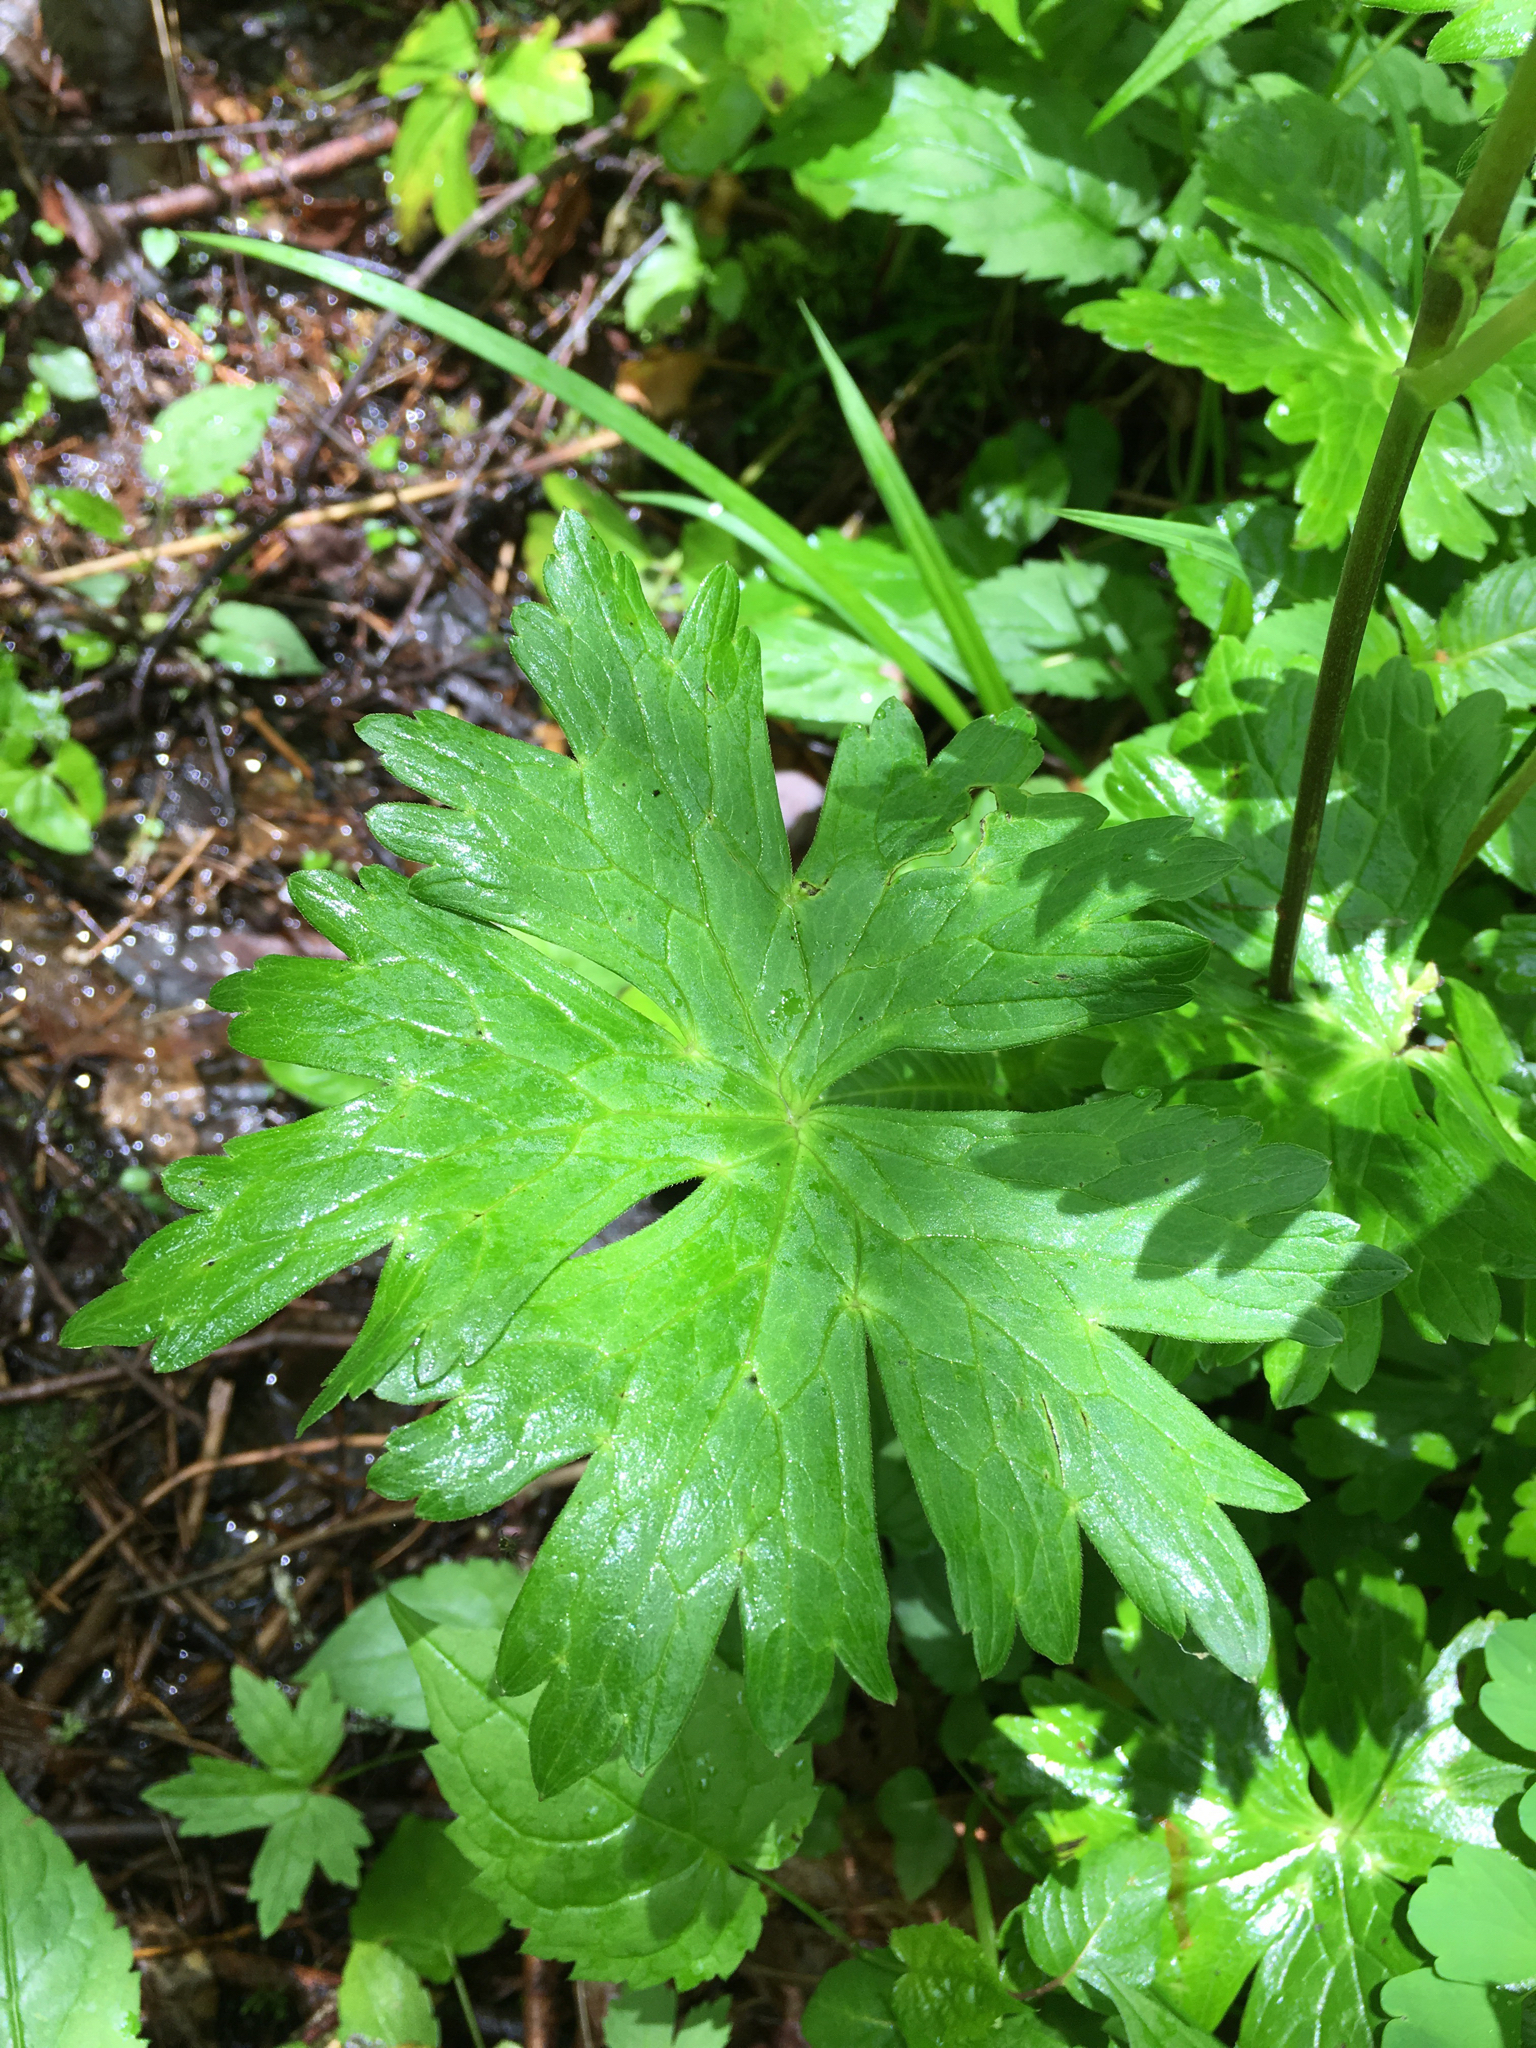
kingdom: Plantae
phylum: Tracheophyta
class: Magnoliopsida
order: Ranunculales
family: Ranunculaceae
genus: Aconitum
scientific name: Aconitum reclinatum
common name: Trailing wolfsbane
